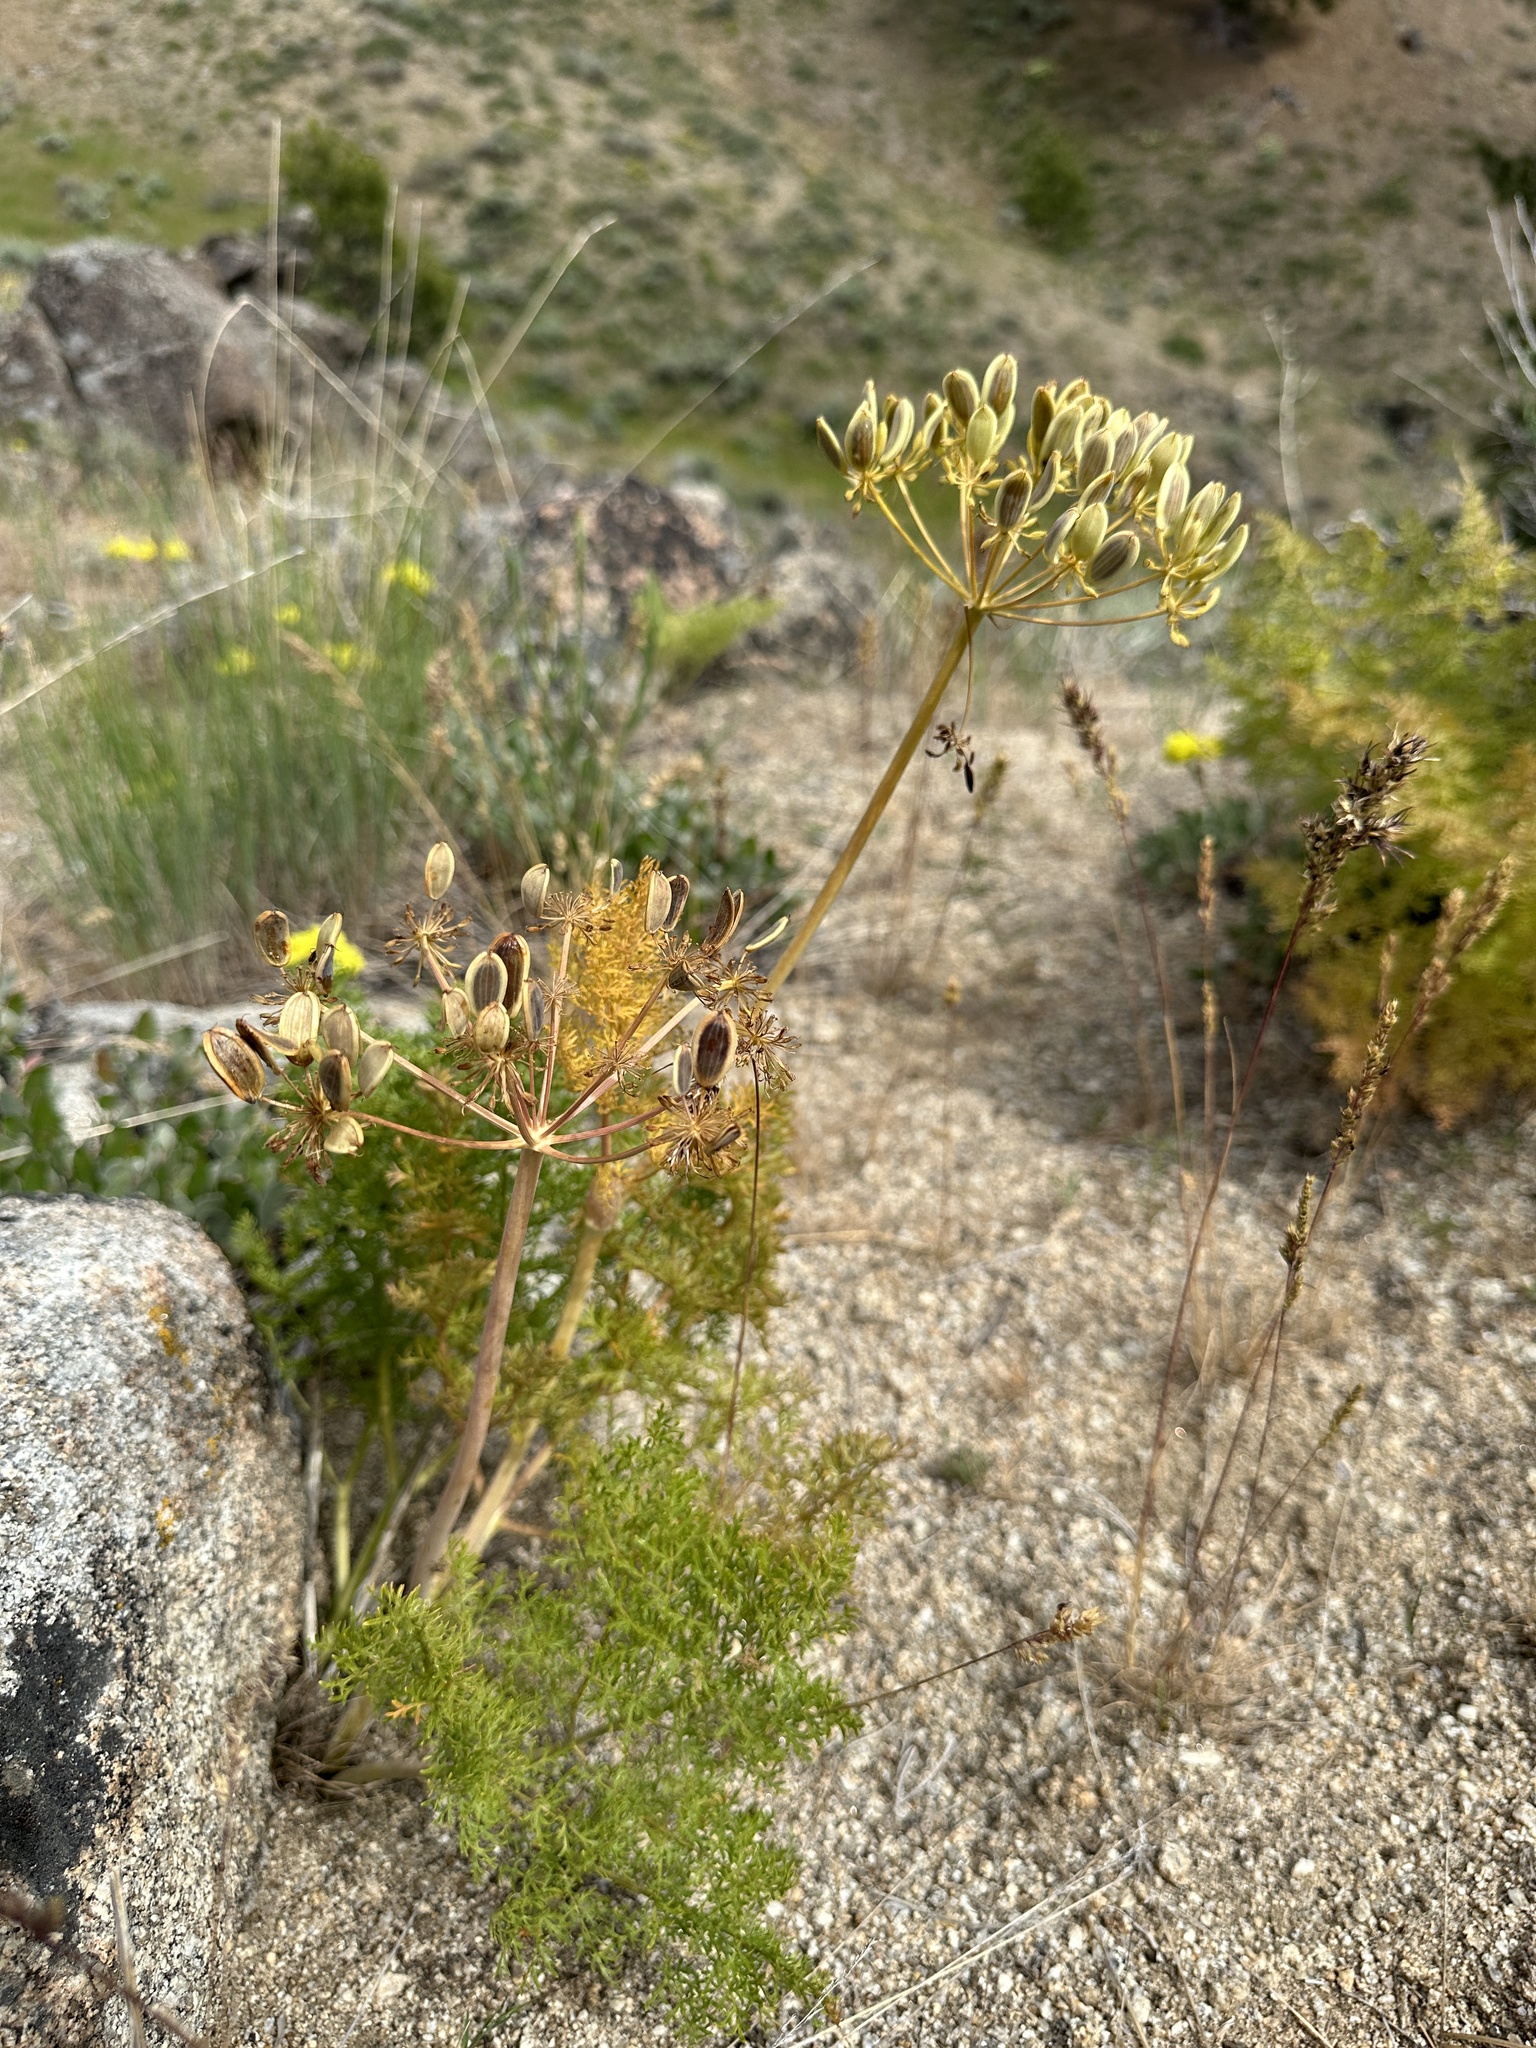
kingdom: Plantae
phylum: Tracheophyta
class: Magnoliopsida
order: Apiales
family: Apiaceae
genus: Lomatium
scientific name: Lomatium multifidum
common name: Carrot-leaved biscuitroot
